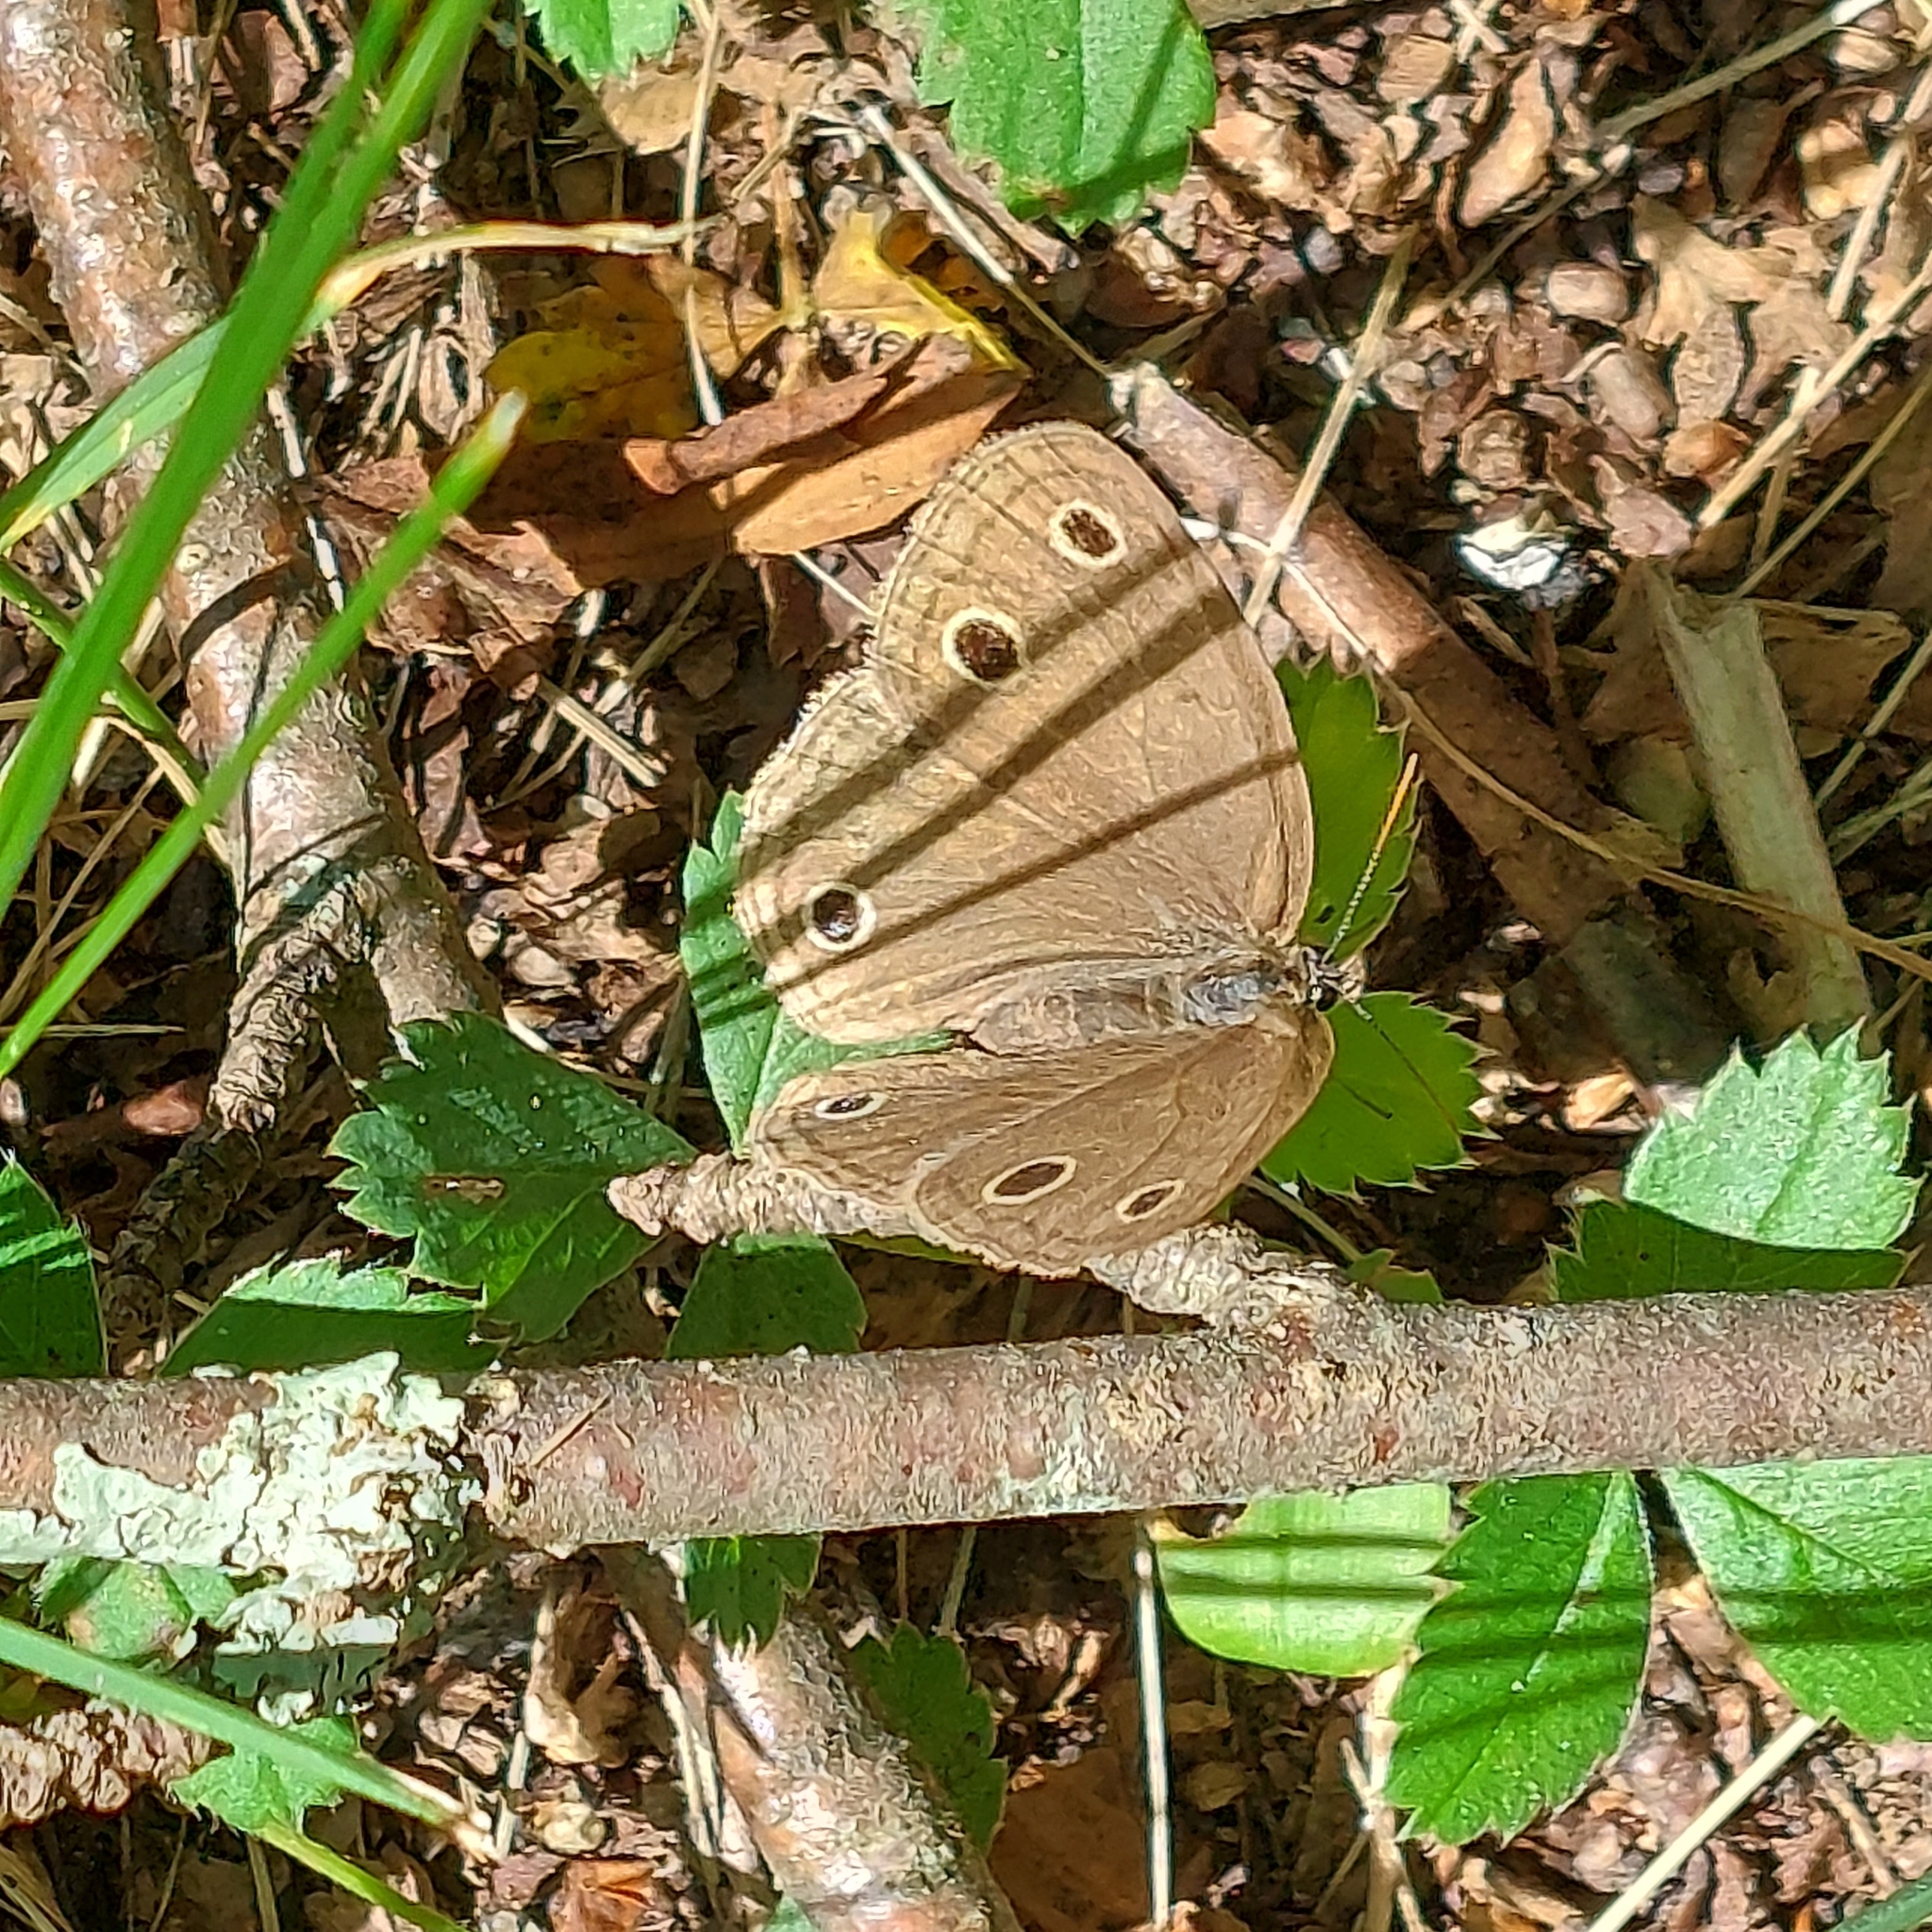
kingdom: Animalia
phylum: Arthropoda
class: Insecta
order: Lepidoptera
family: Nymphalidae
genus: Euptychia
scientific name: Euptychia cymela
